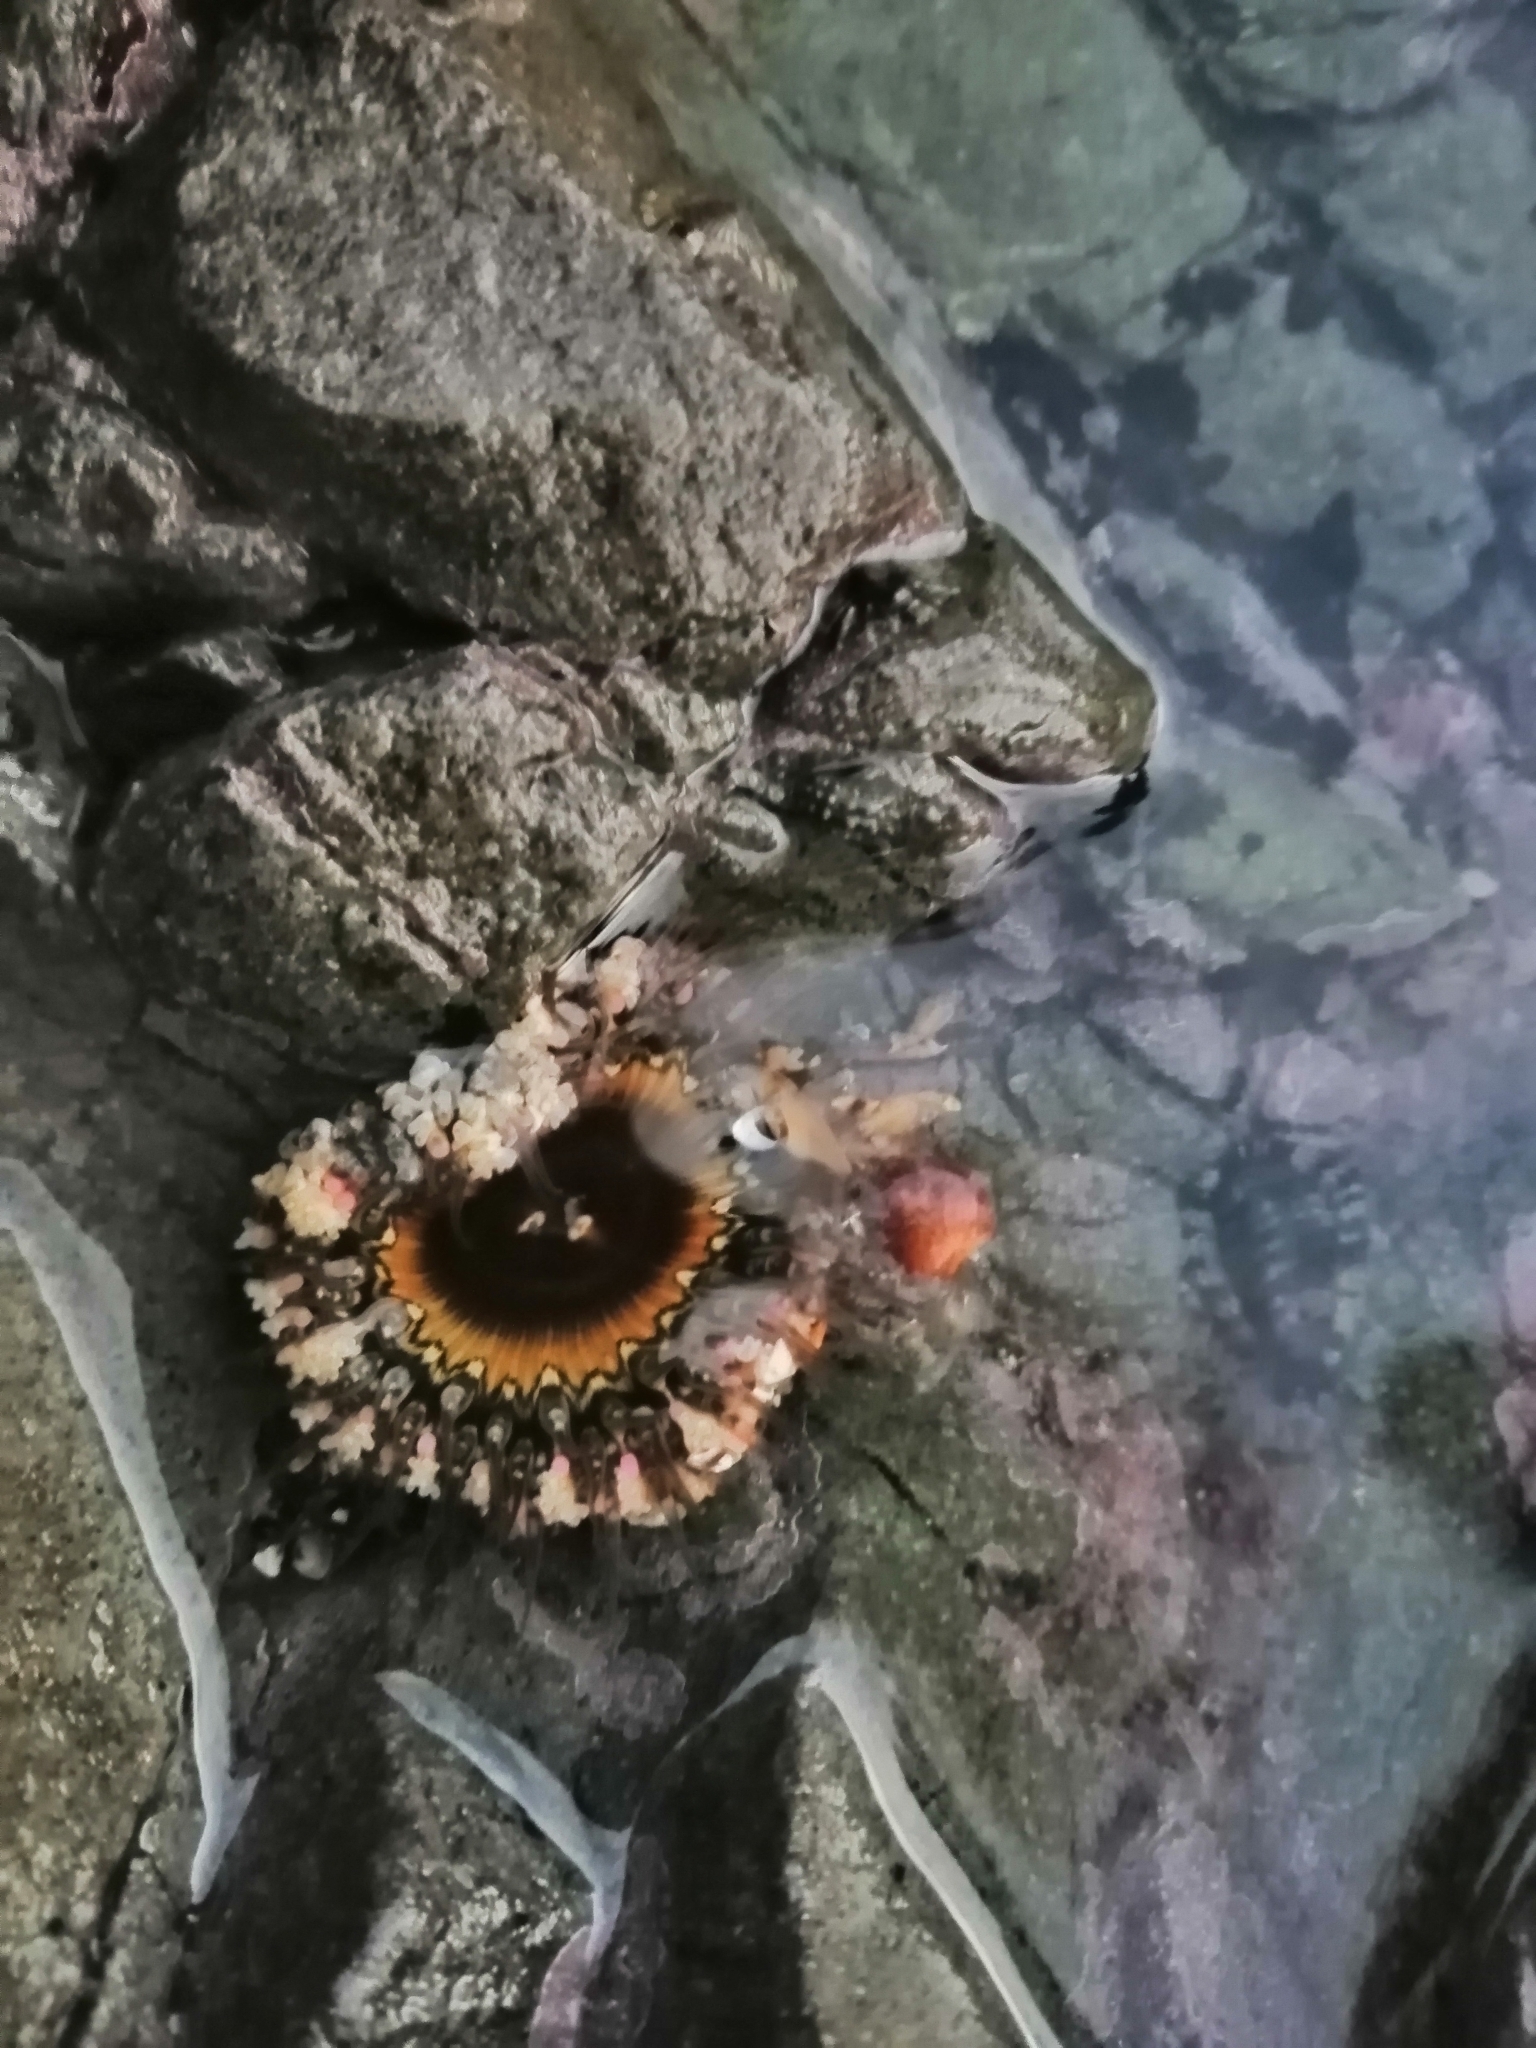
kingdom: Animalia
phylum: Cnidaria
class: Anthozoa
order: Actiniaria
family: Actiniidae
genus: Oulactis
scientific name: Oulactis muscosa
